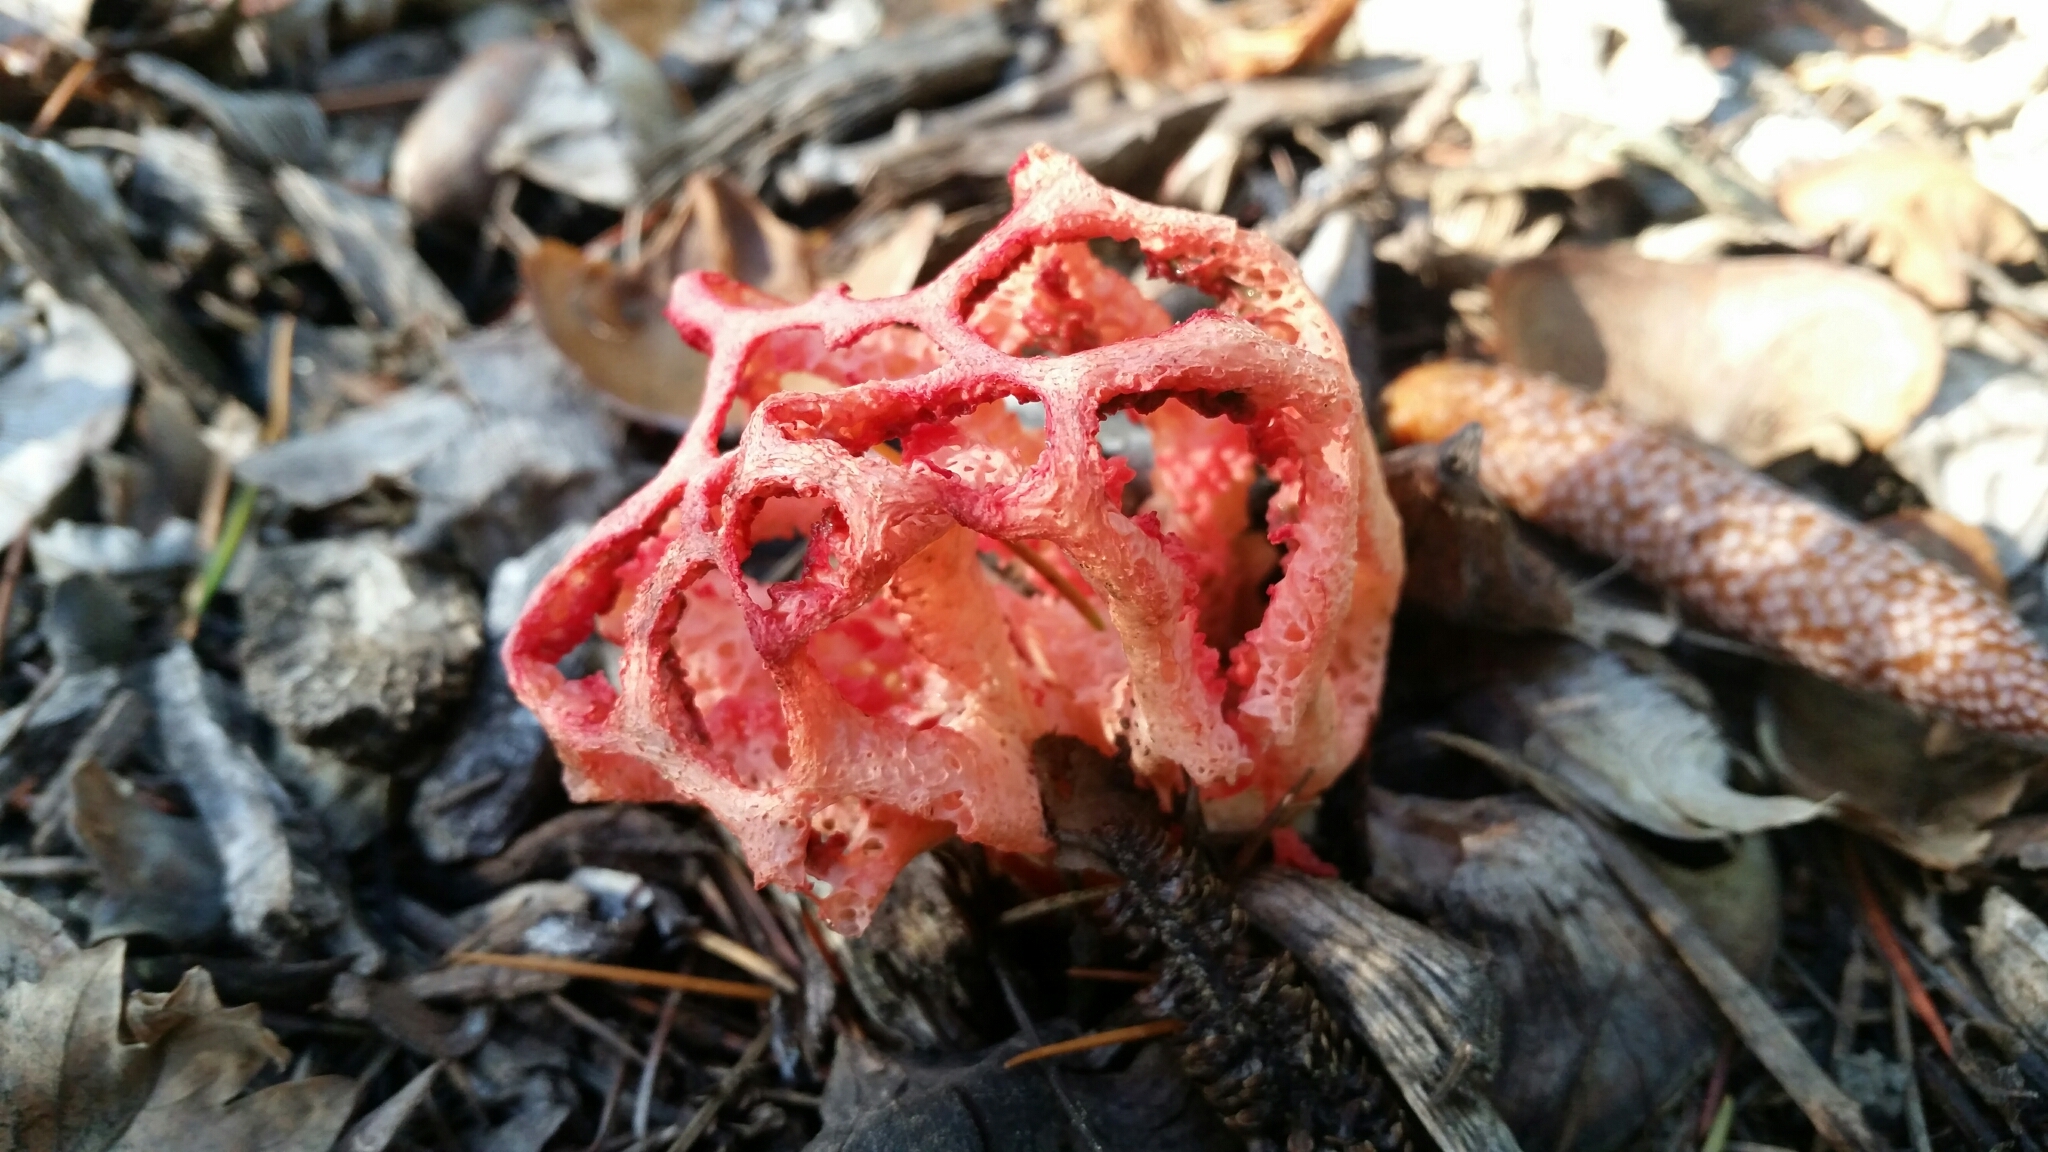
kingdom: Fungi
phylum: Basidiomycota
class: Agaricomycetes
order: Phallales
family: Phallaceae
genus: Clathrus
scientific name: Clathrus ruber
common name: Red cage
